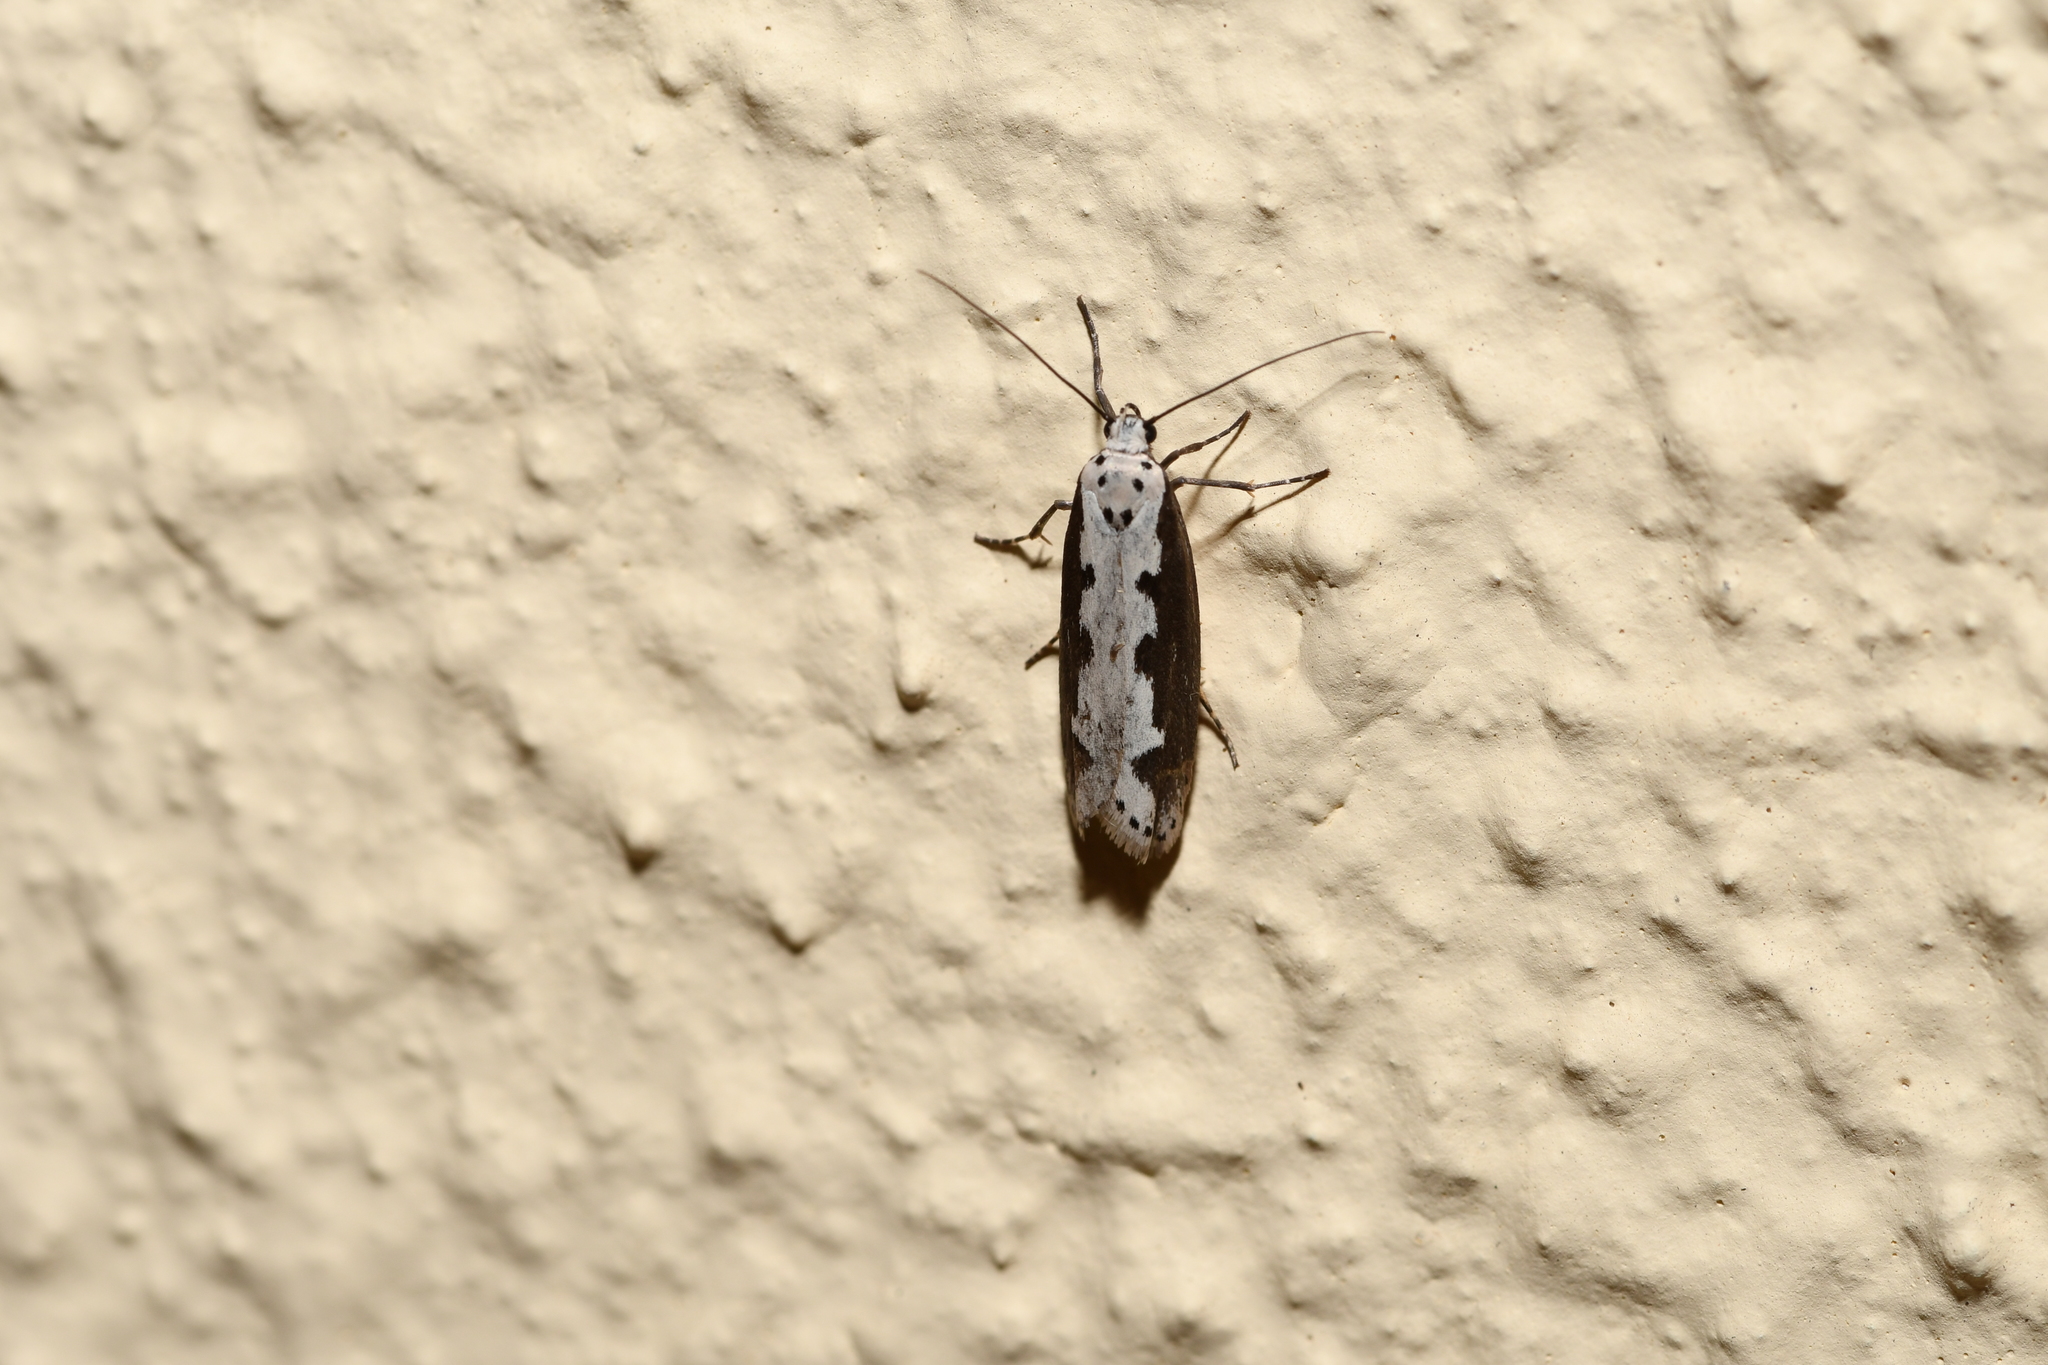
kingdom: Animalia
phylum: Arthropoda
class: Insecta
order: Lepidoptera
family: Ethmiidae
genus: Ethmia
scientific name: Ethmia bipunctella
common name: Bordered ermel
